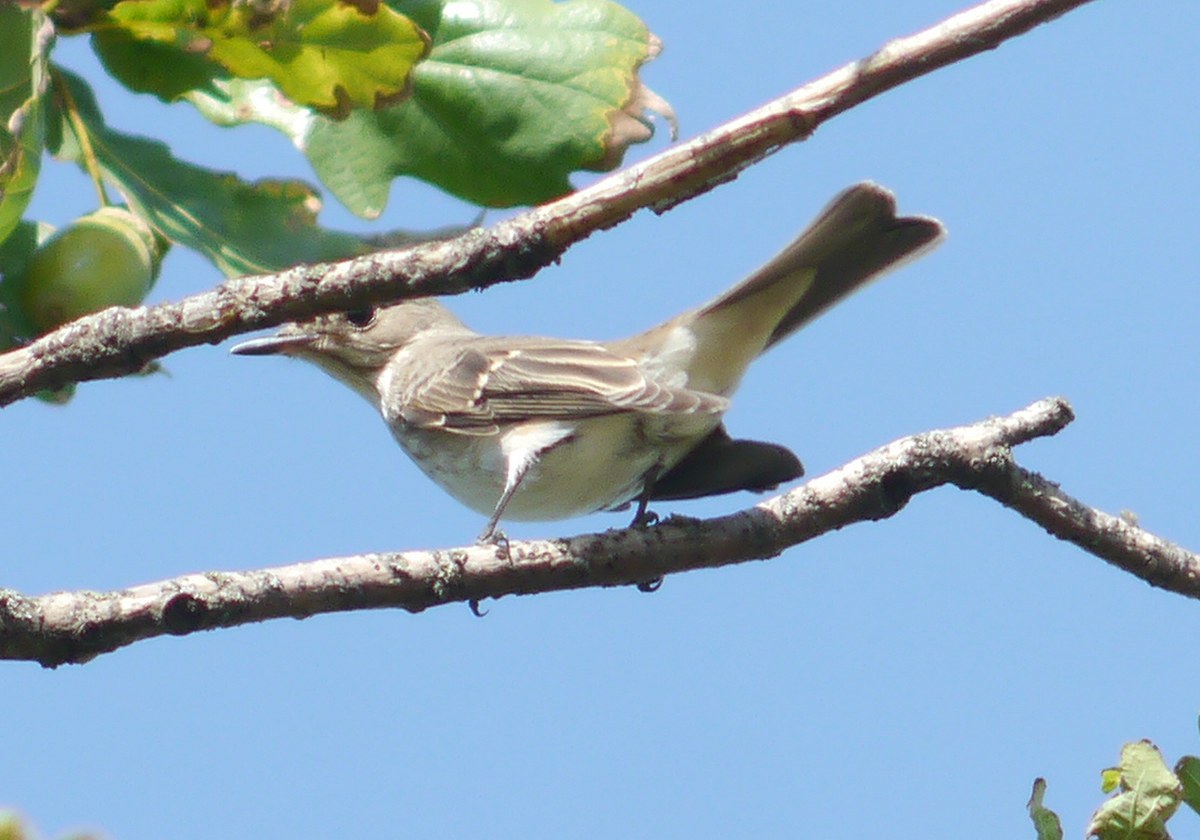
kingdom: Animalia
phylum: Chordata
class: Aves
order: Passeriformes
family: Muscicapidae
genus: Muscicapa
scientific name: Muscicapa striata
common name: Spotted flycatcher
